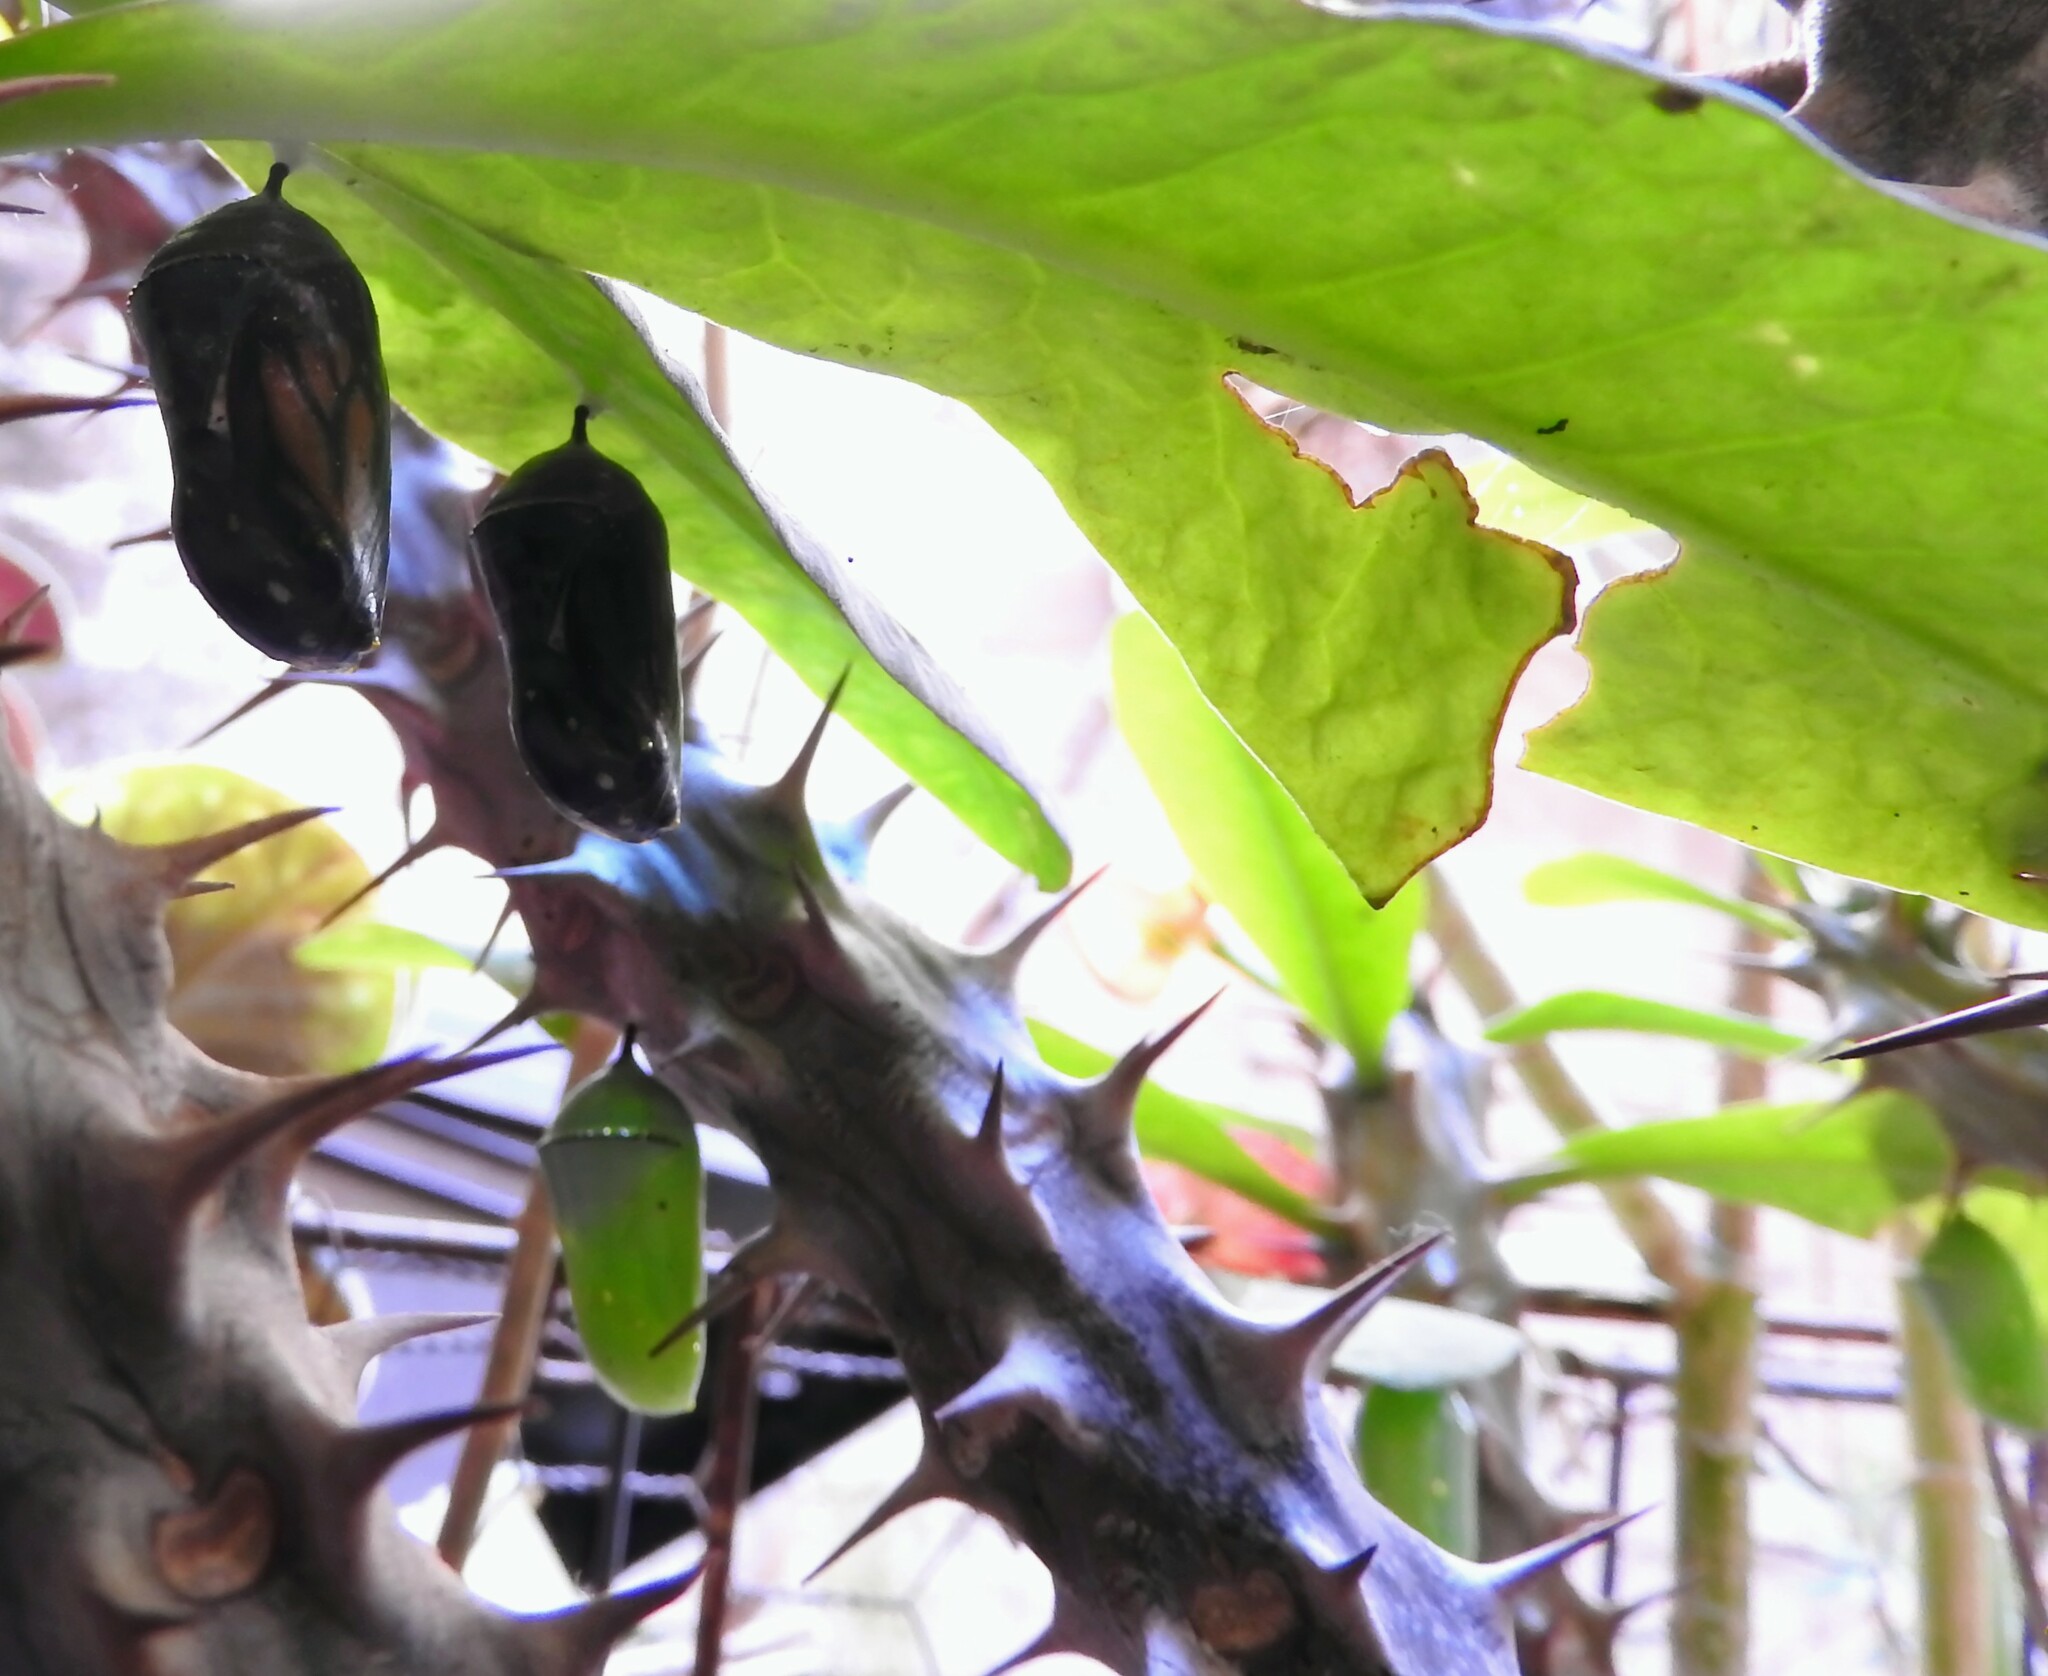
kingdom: Animalia
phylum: Arthropoda
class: Insecta
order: Lepidoptera
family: Nymphalidae
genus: Danaus
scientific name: Danaus plexippus
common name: Monarch
